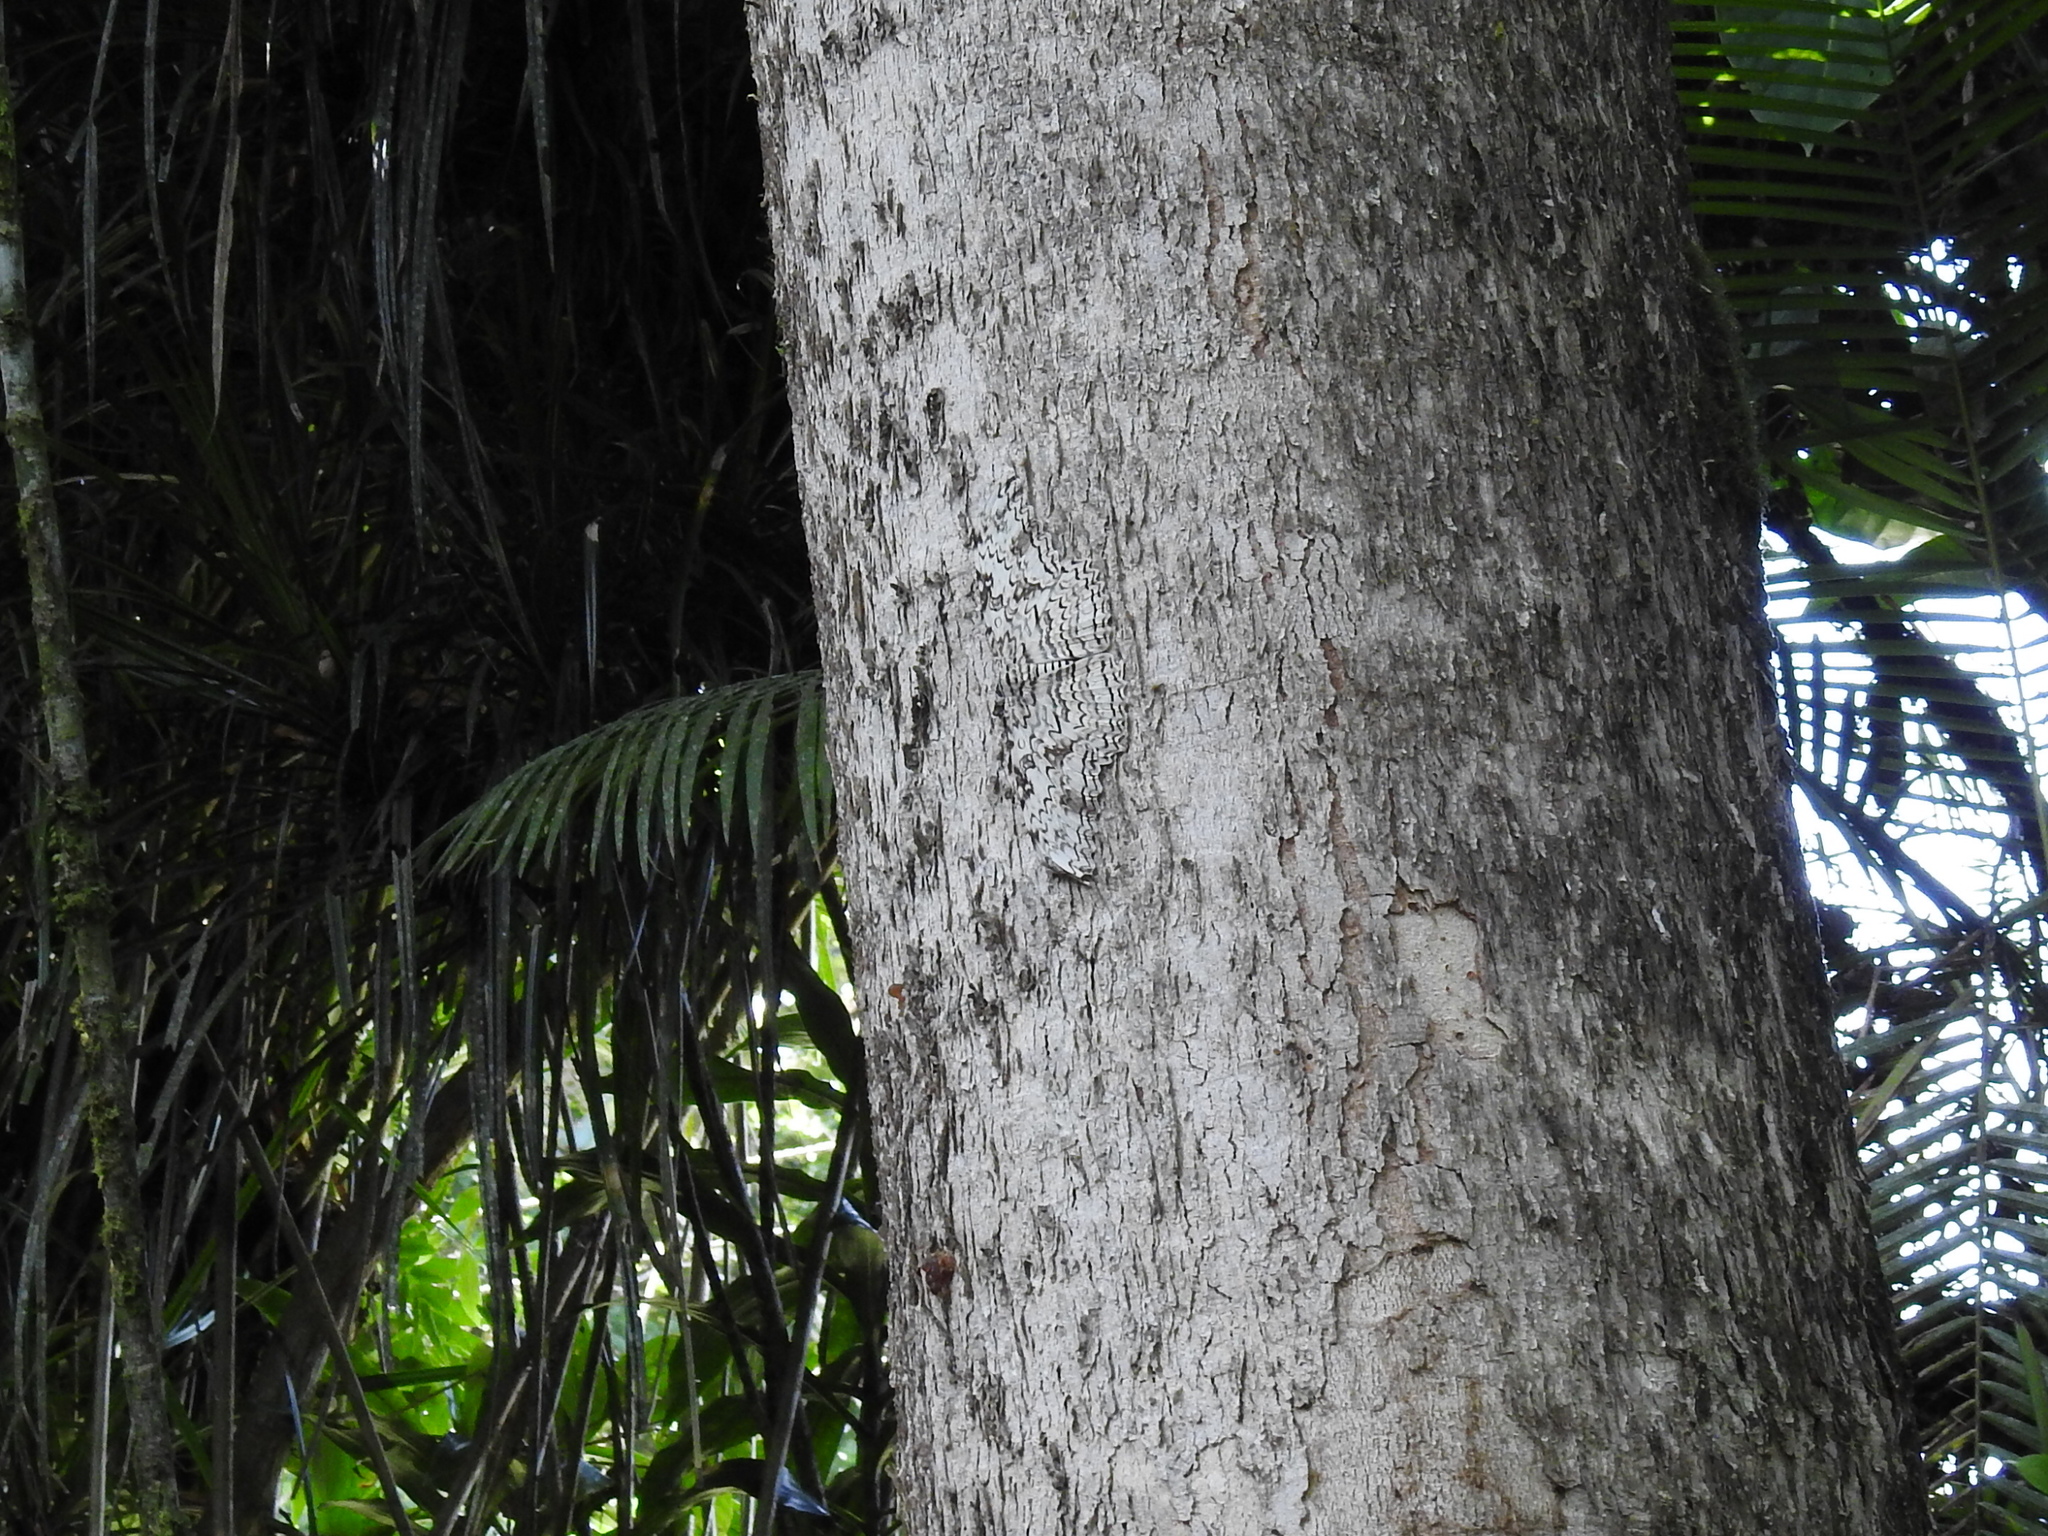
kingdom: Animalia
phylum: Arthropoda
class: Insecta
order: Lepidoptera
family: Erebidae
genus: Thysania
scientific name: Thysania agrippina
